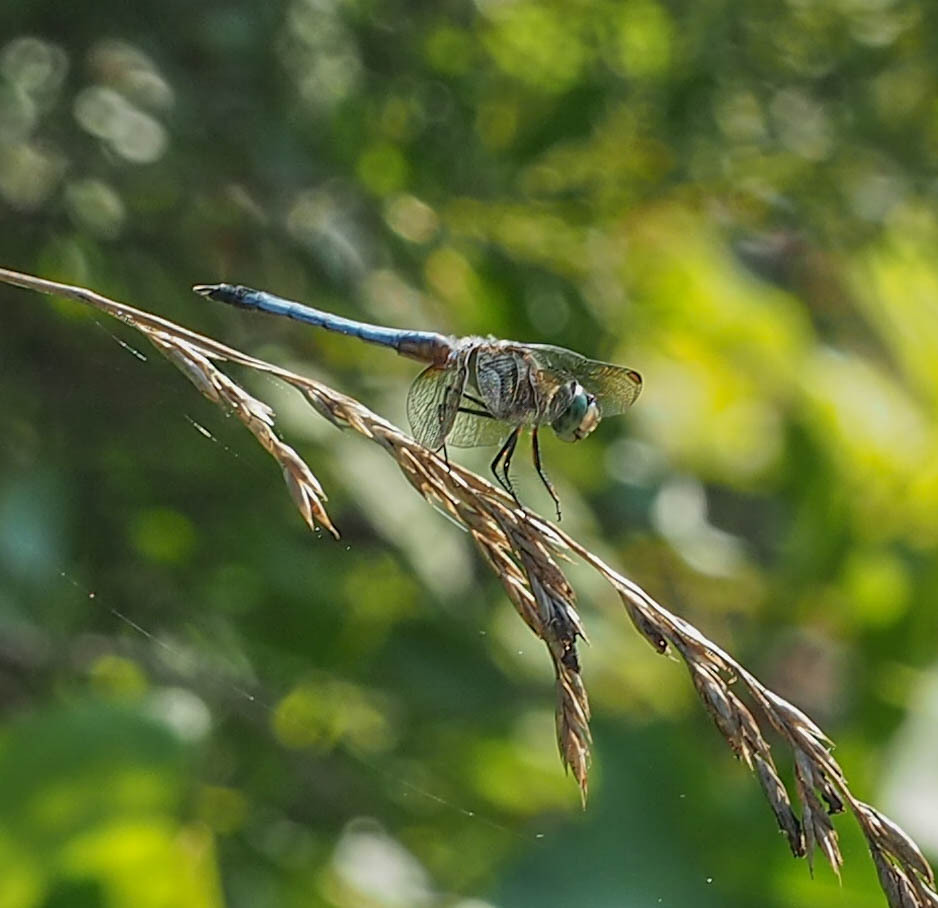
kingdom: Animalia
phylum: Arthropoda
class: Insecta
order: Odonata
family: Libellulidae
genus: Pachydiplax
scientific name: Pachydiplax longipennis
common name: Blue dasher
